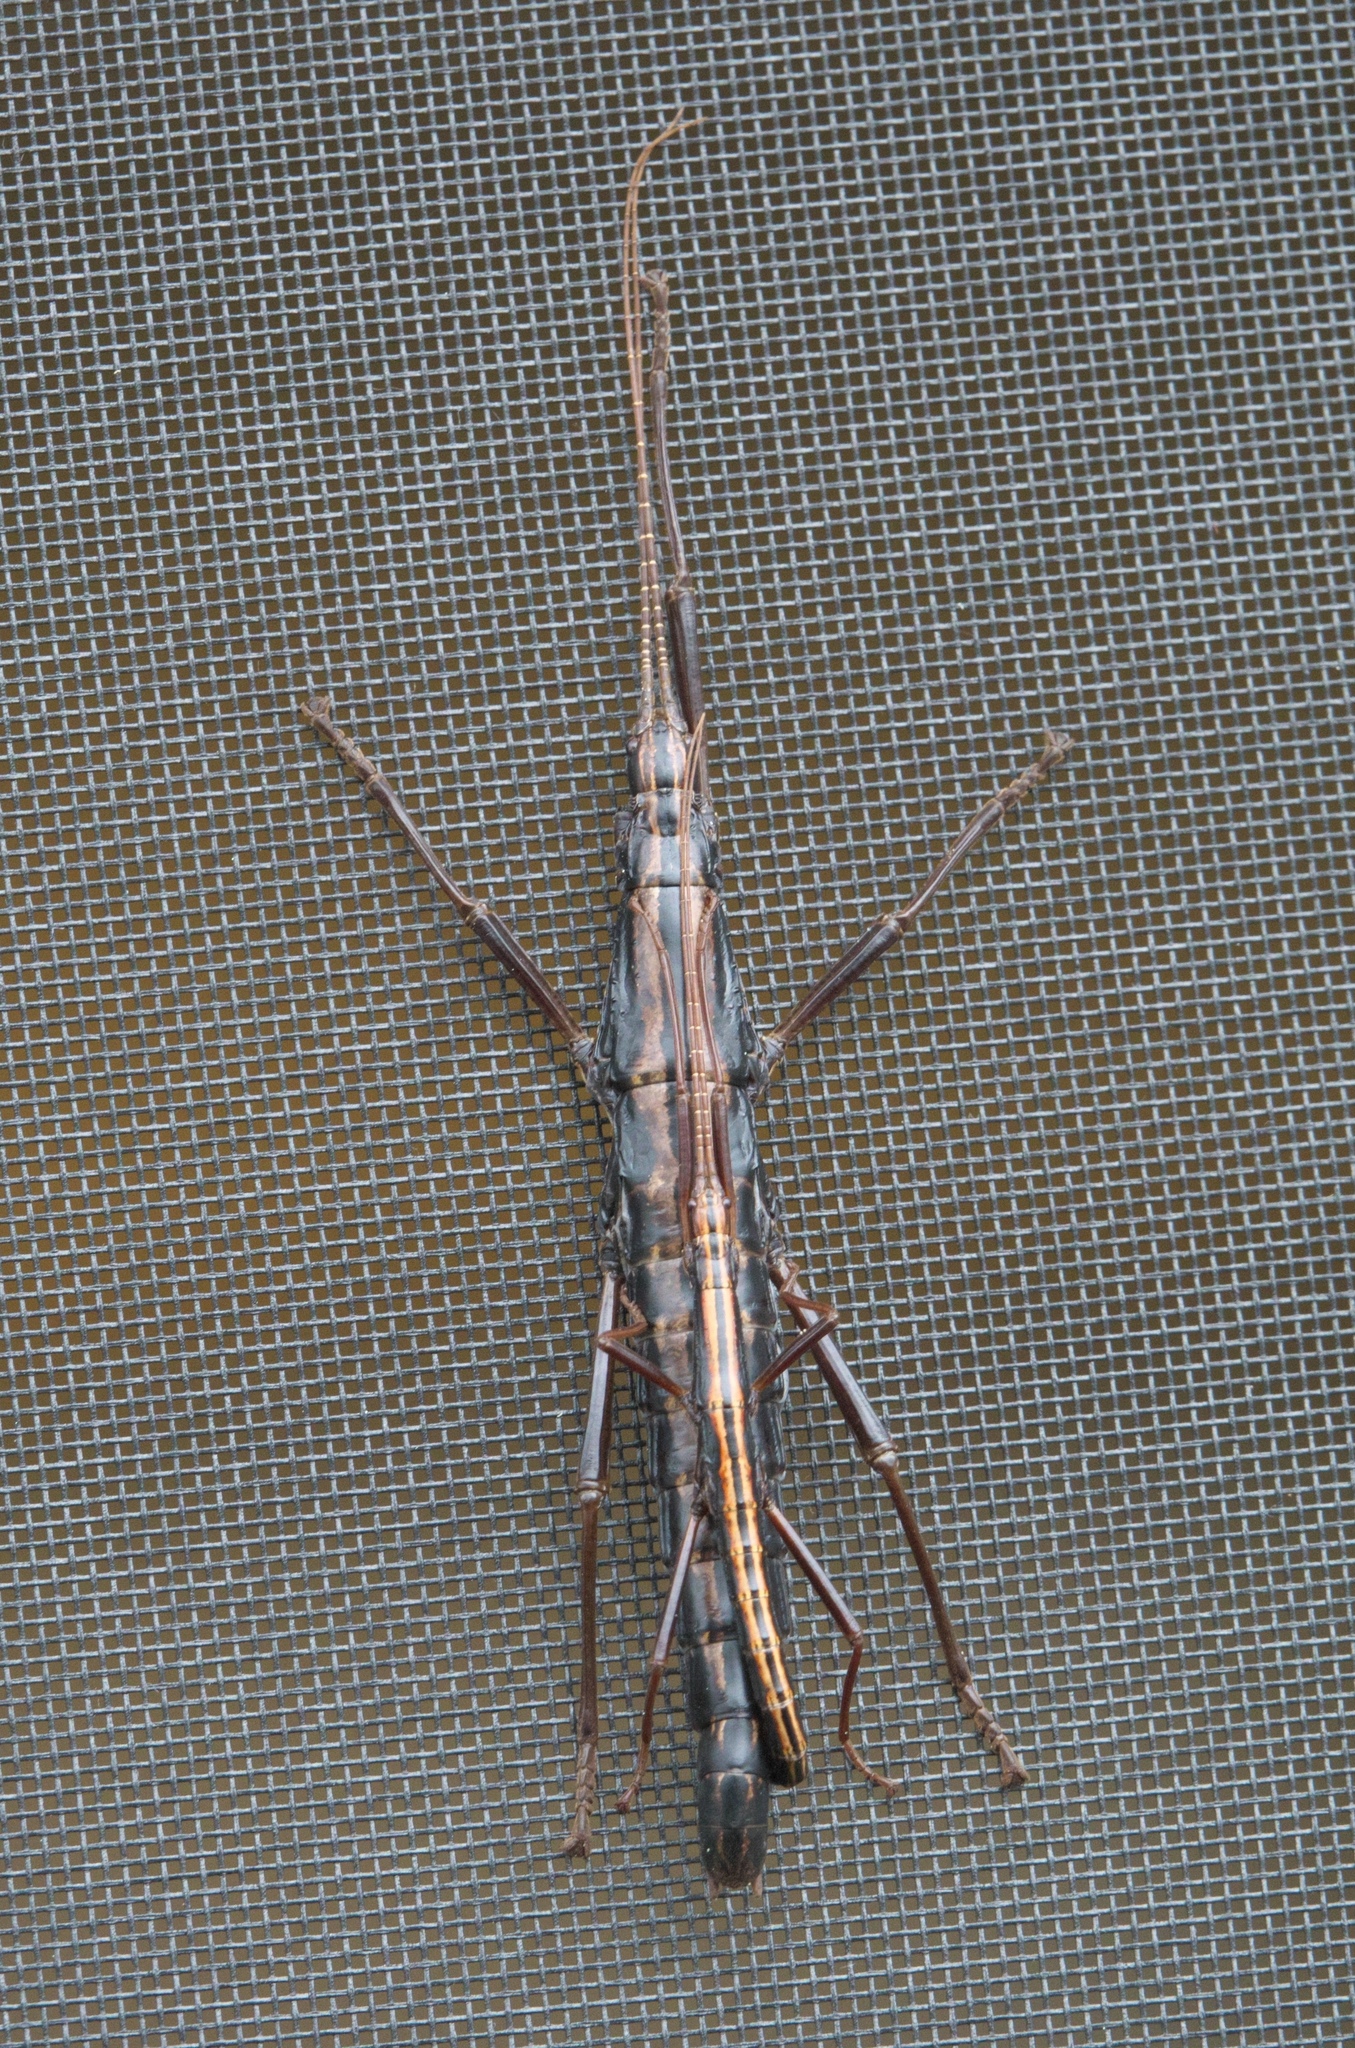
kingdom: Animalia
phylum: Arthropoda
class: Insecta
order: Phasmida
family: Pseudophasmatidae
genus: Anisomorpha
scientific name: Anisomorpha buprestoides
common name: Florida stick insect
